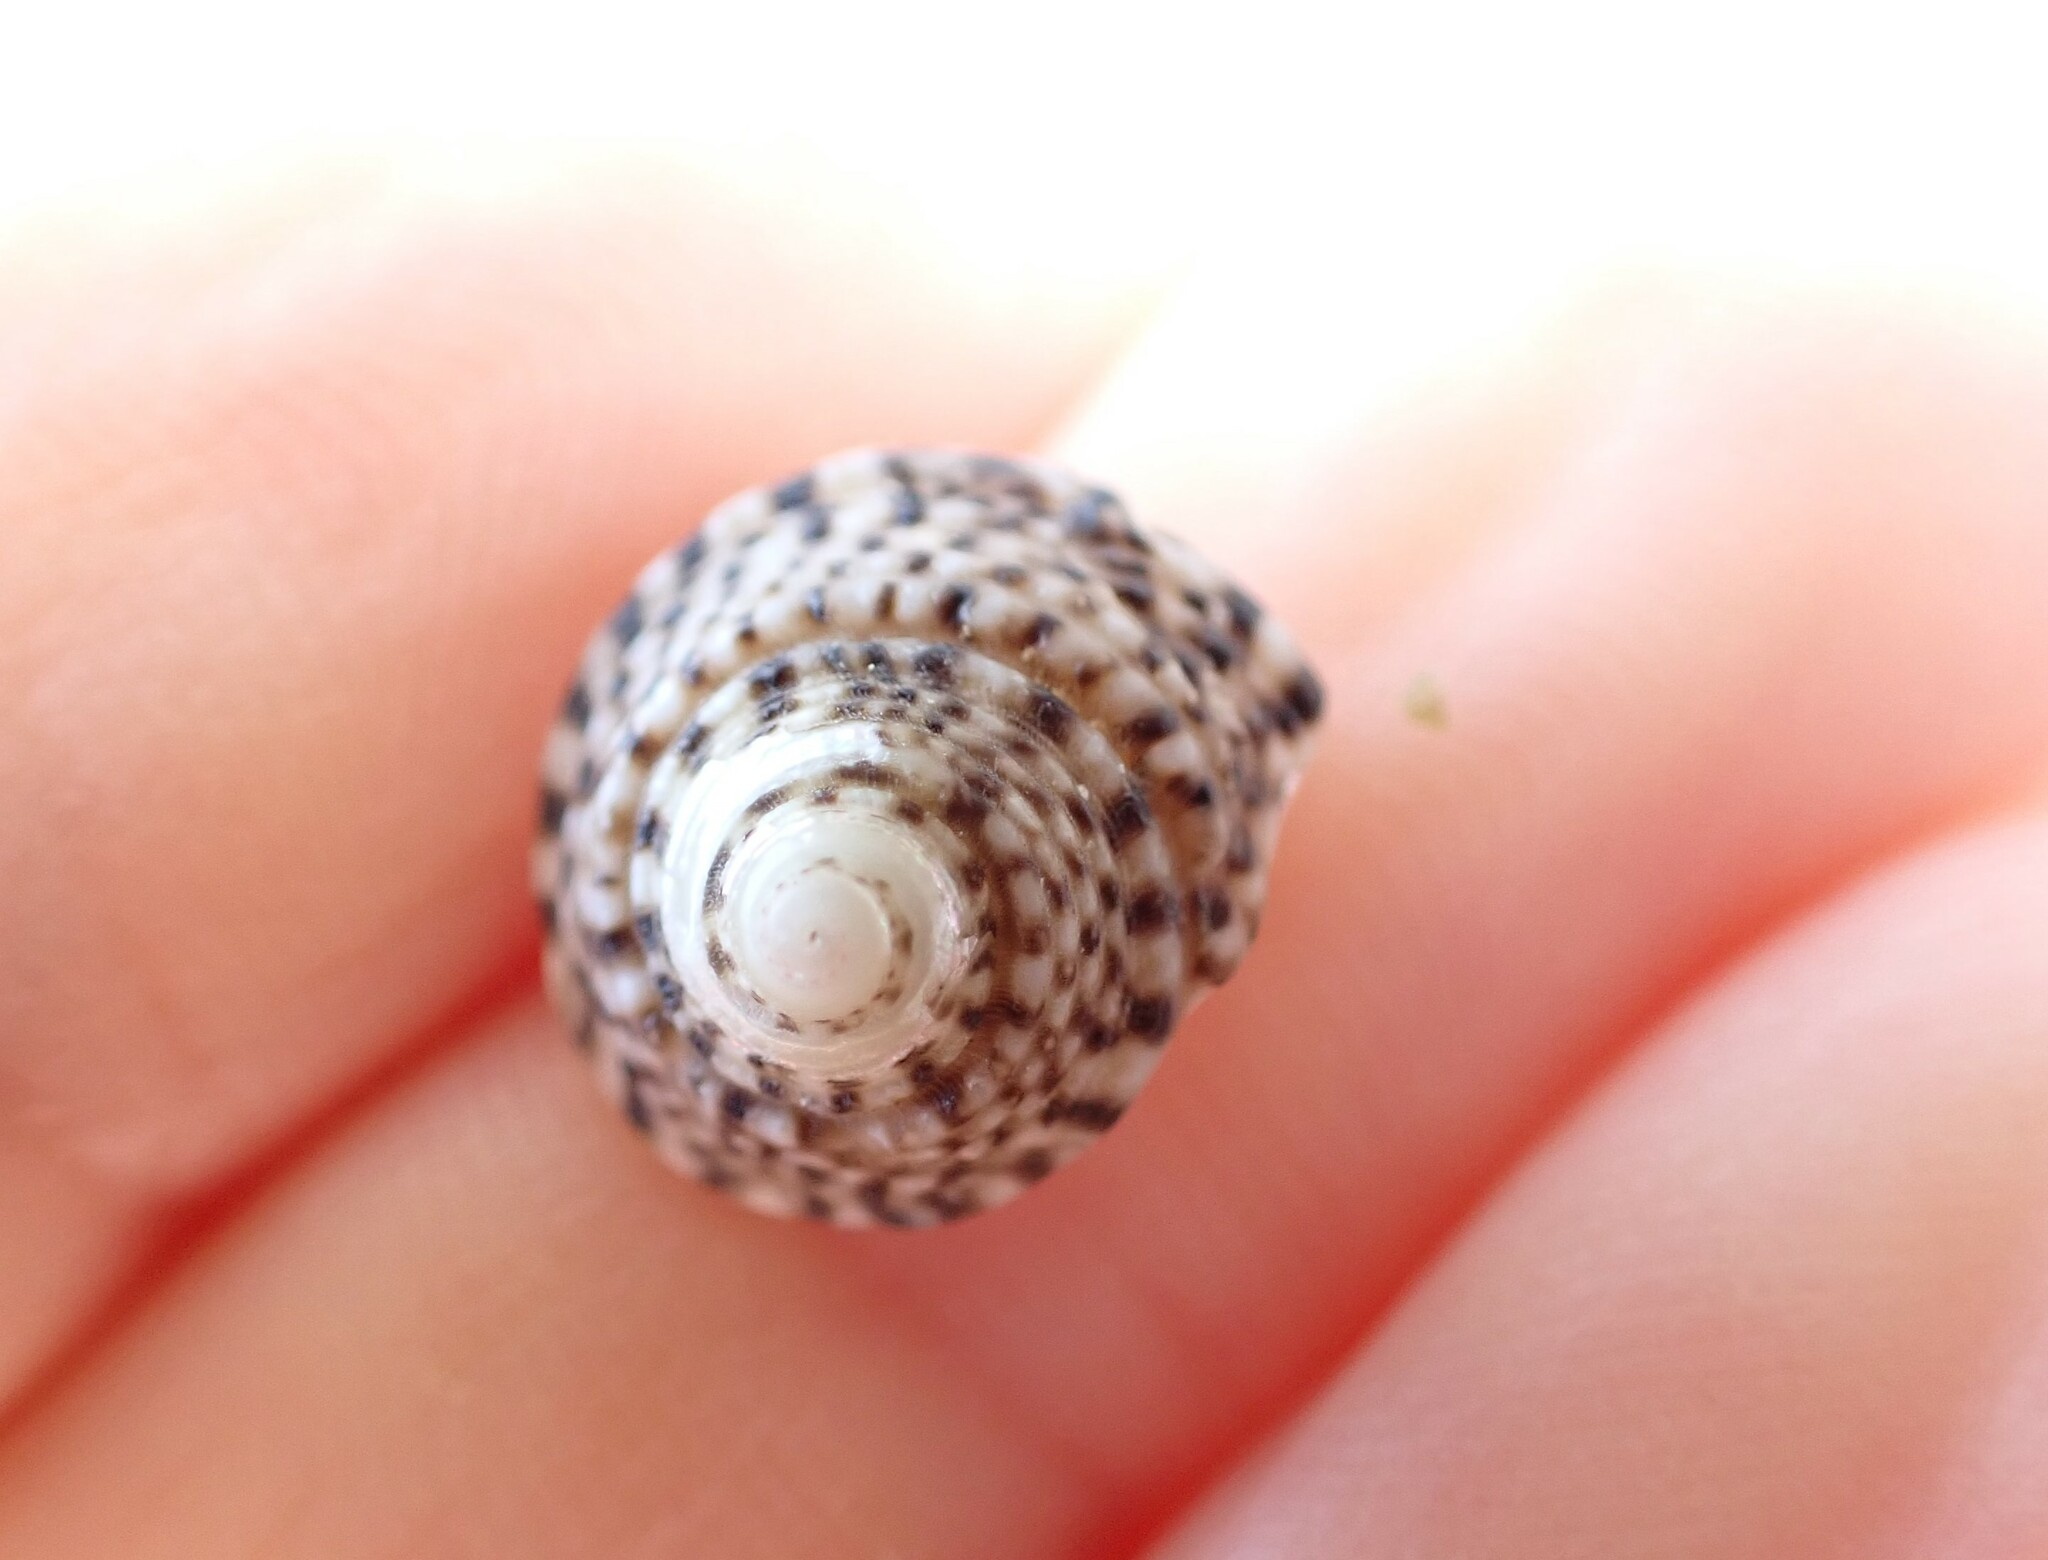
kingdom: Animalia
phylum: Mollusca
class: Gastropoda
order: Trochida
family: Trochidae
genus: Coelotrochus
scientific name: Coelotrochus tiaratus
